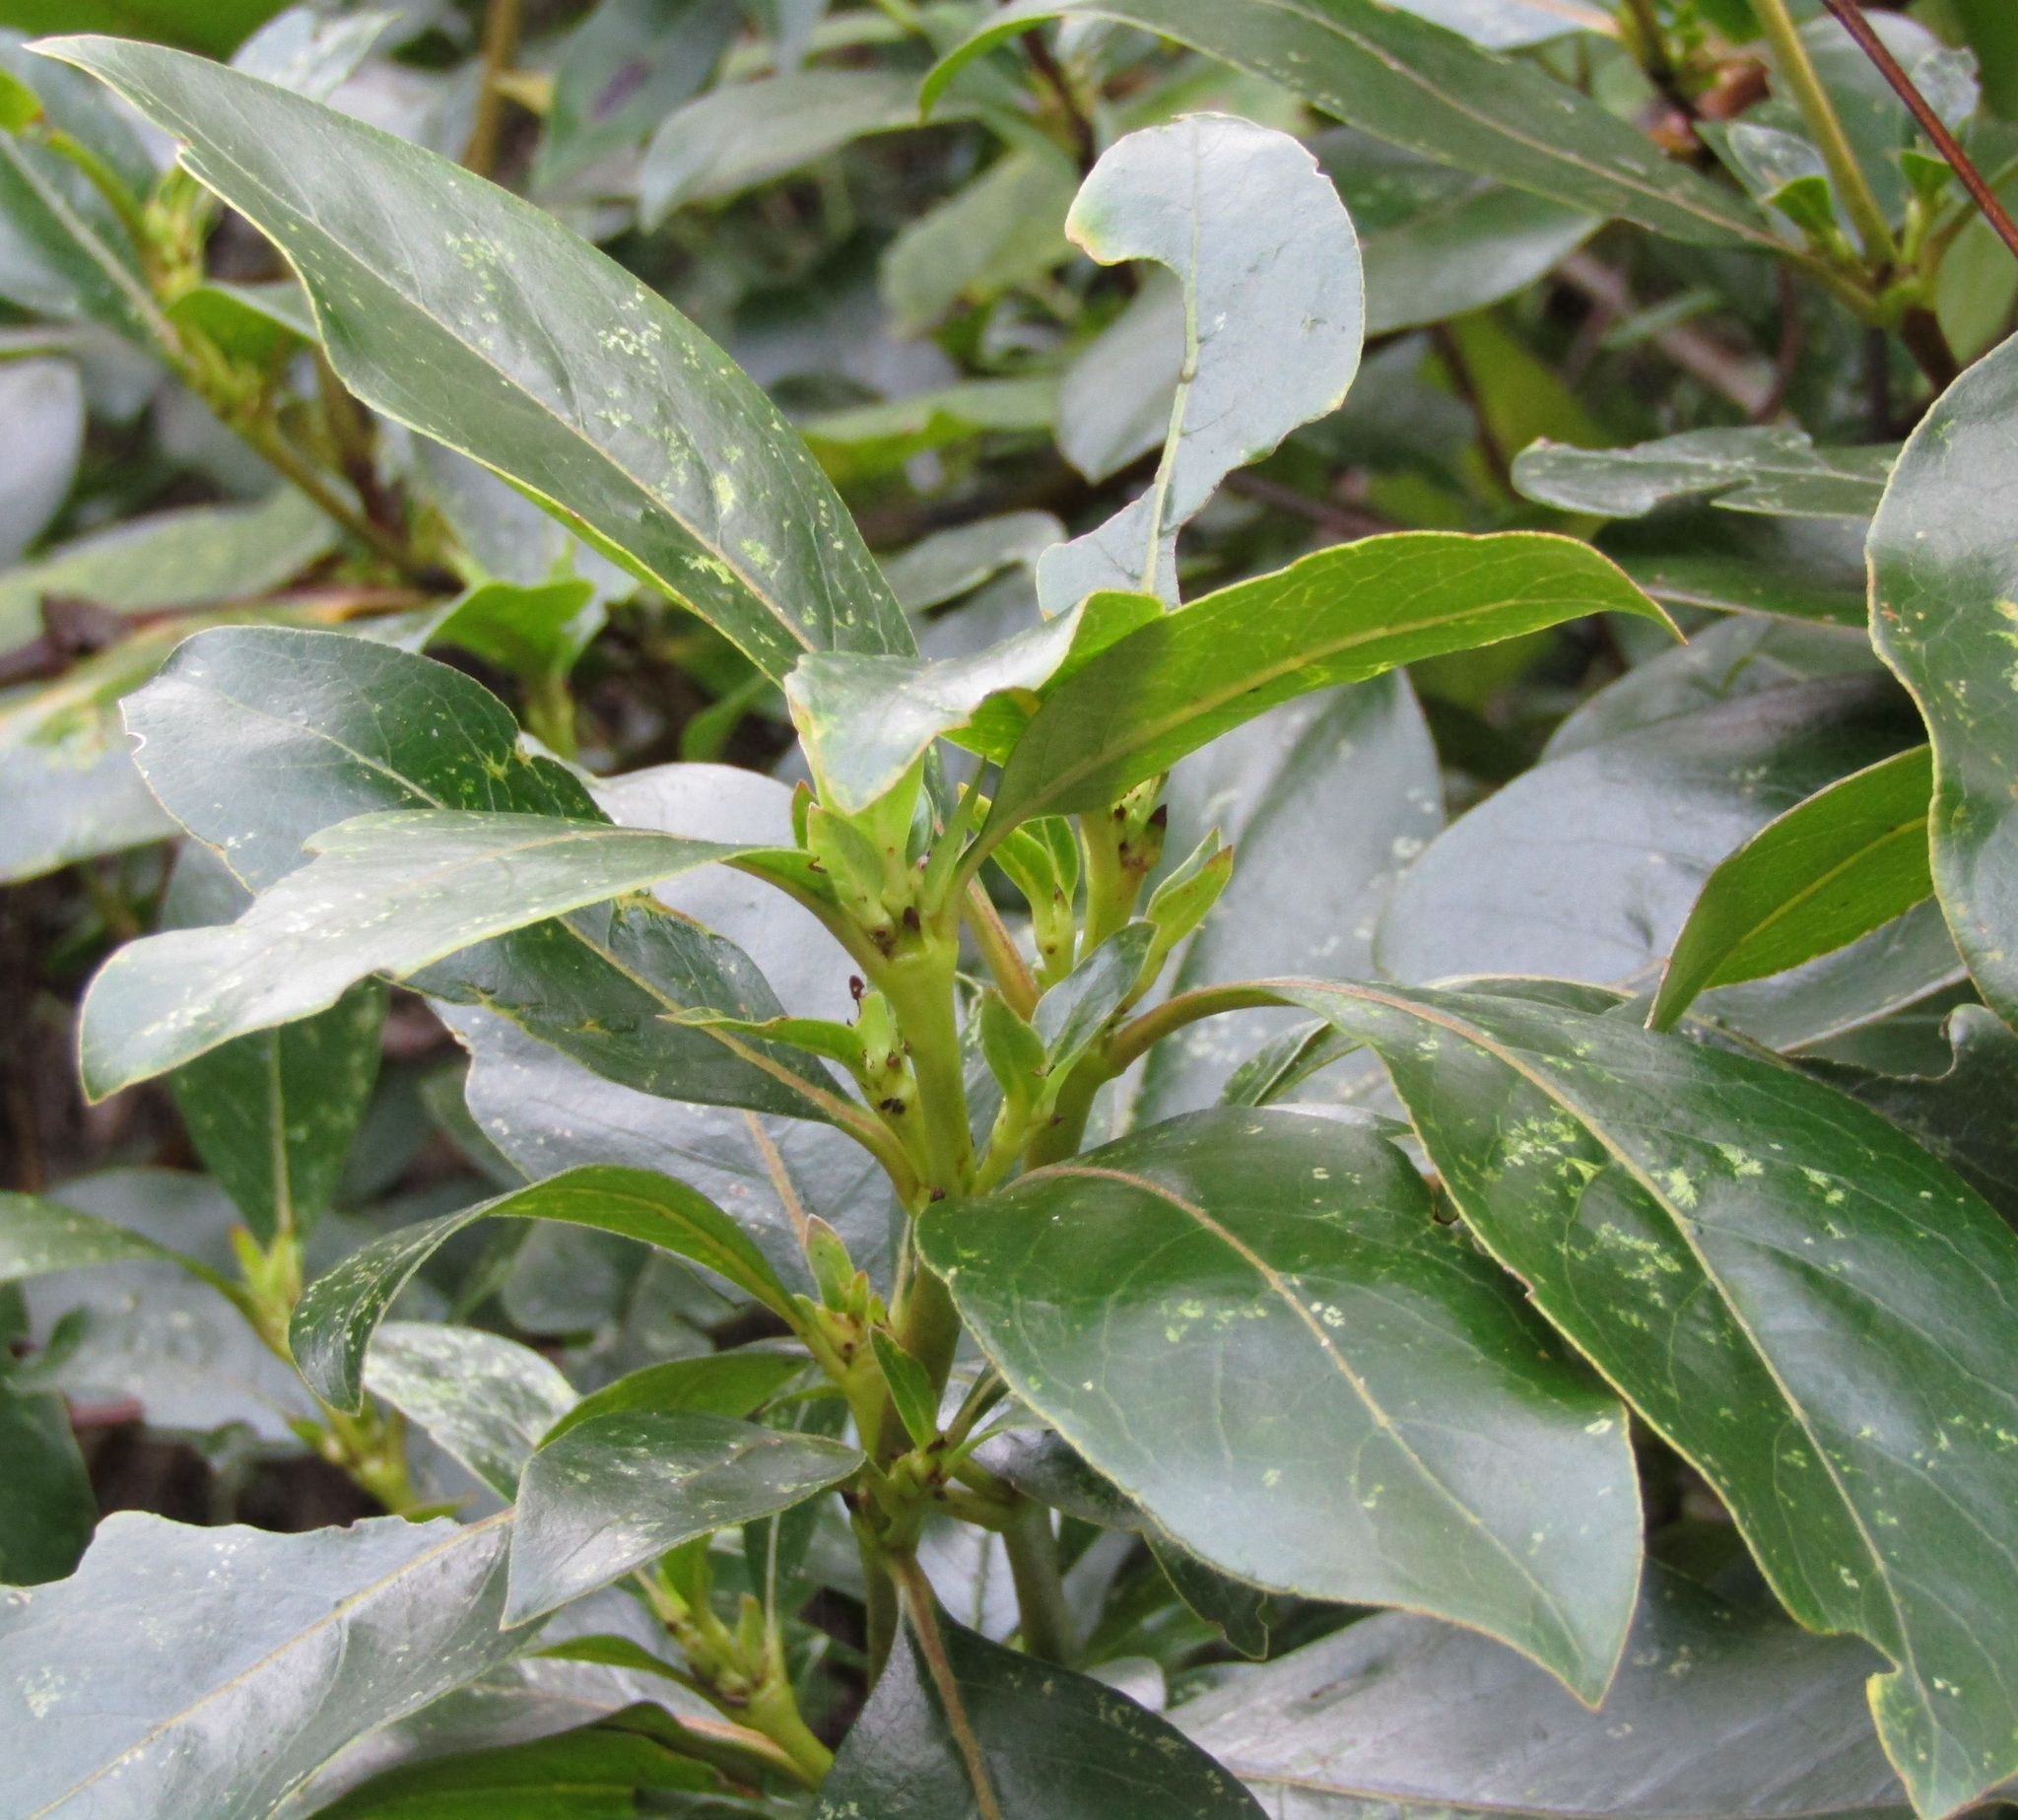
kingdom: Plantae
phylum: Tracheophyta
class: Magnoliopsida
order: Gentianales
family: Rubiaceae
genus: Coprosma
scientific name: Coprosma robusta
